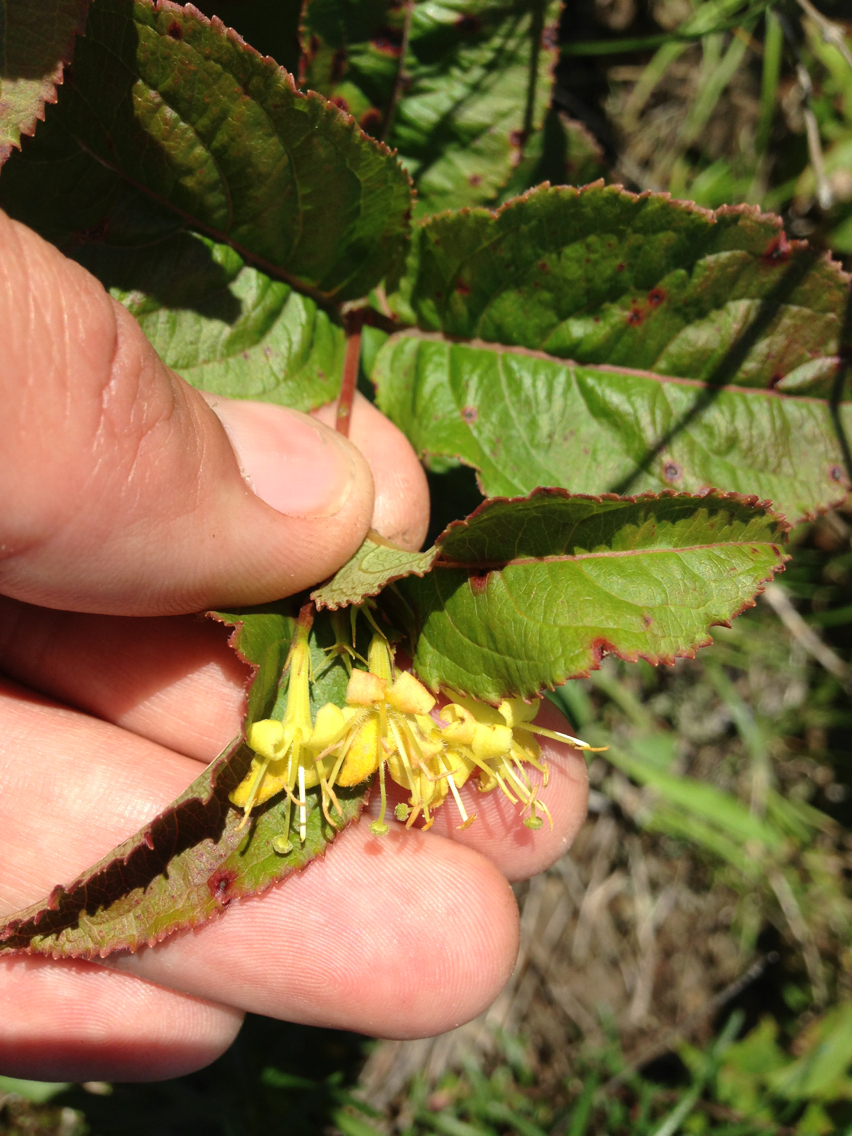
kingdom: Plantae
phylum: Tracheophyta
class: Magnoliopsida
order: Dipsacales
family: Caprifoliaceae
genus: Diervilla
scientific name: Diervilla lonicera
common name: Bush-honeysuckle
